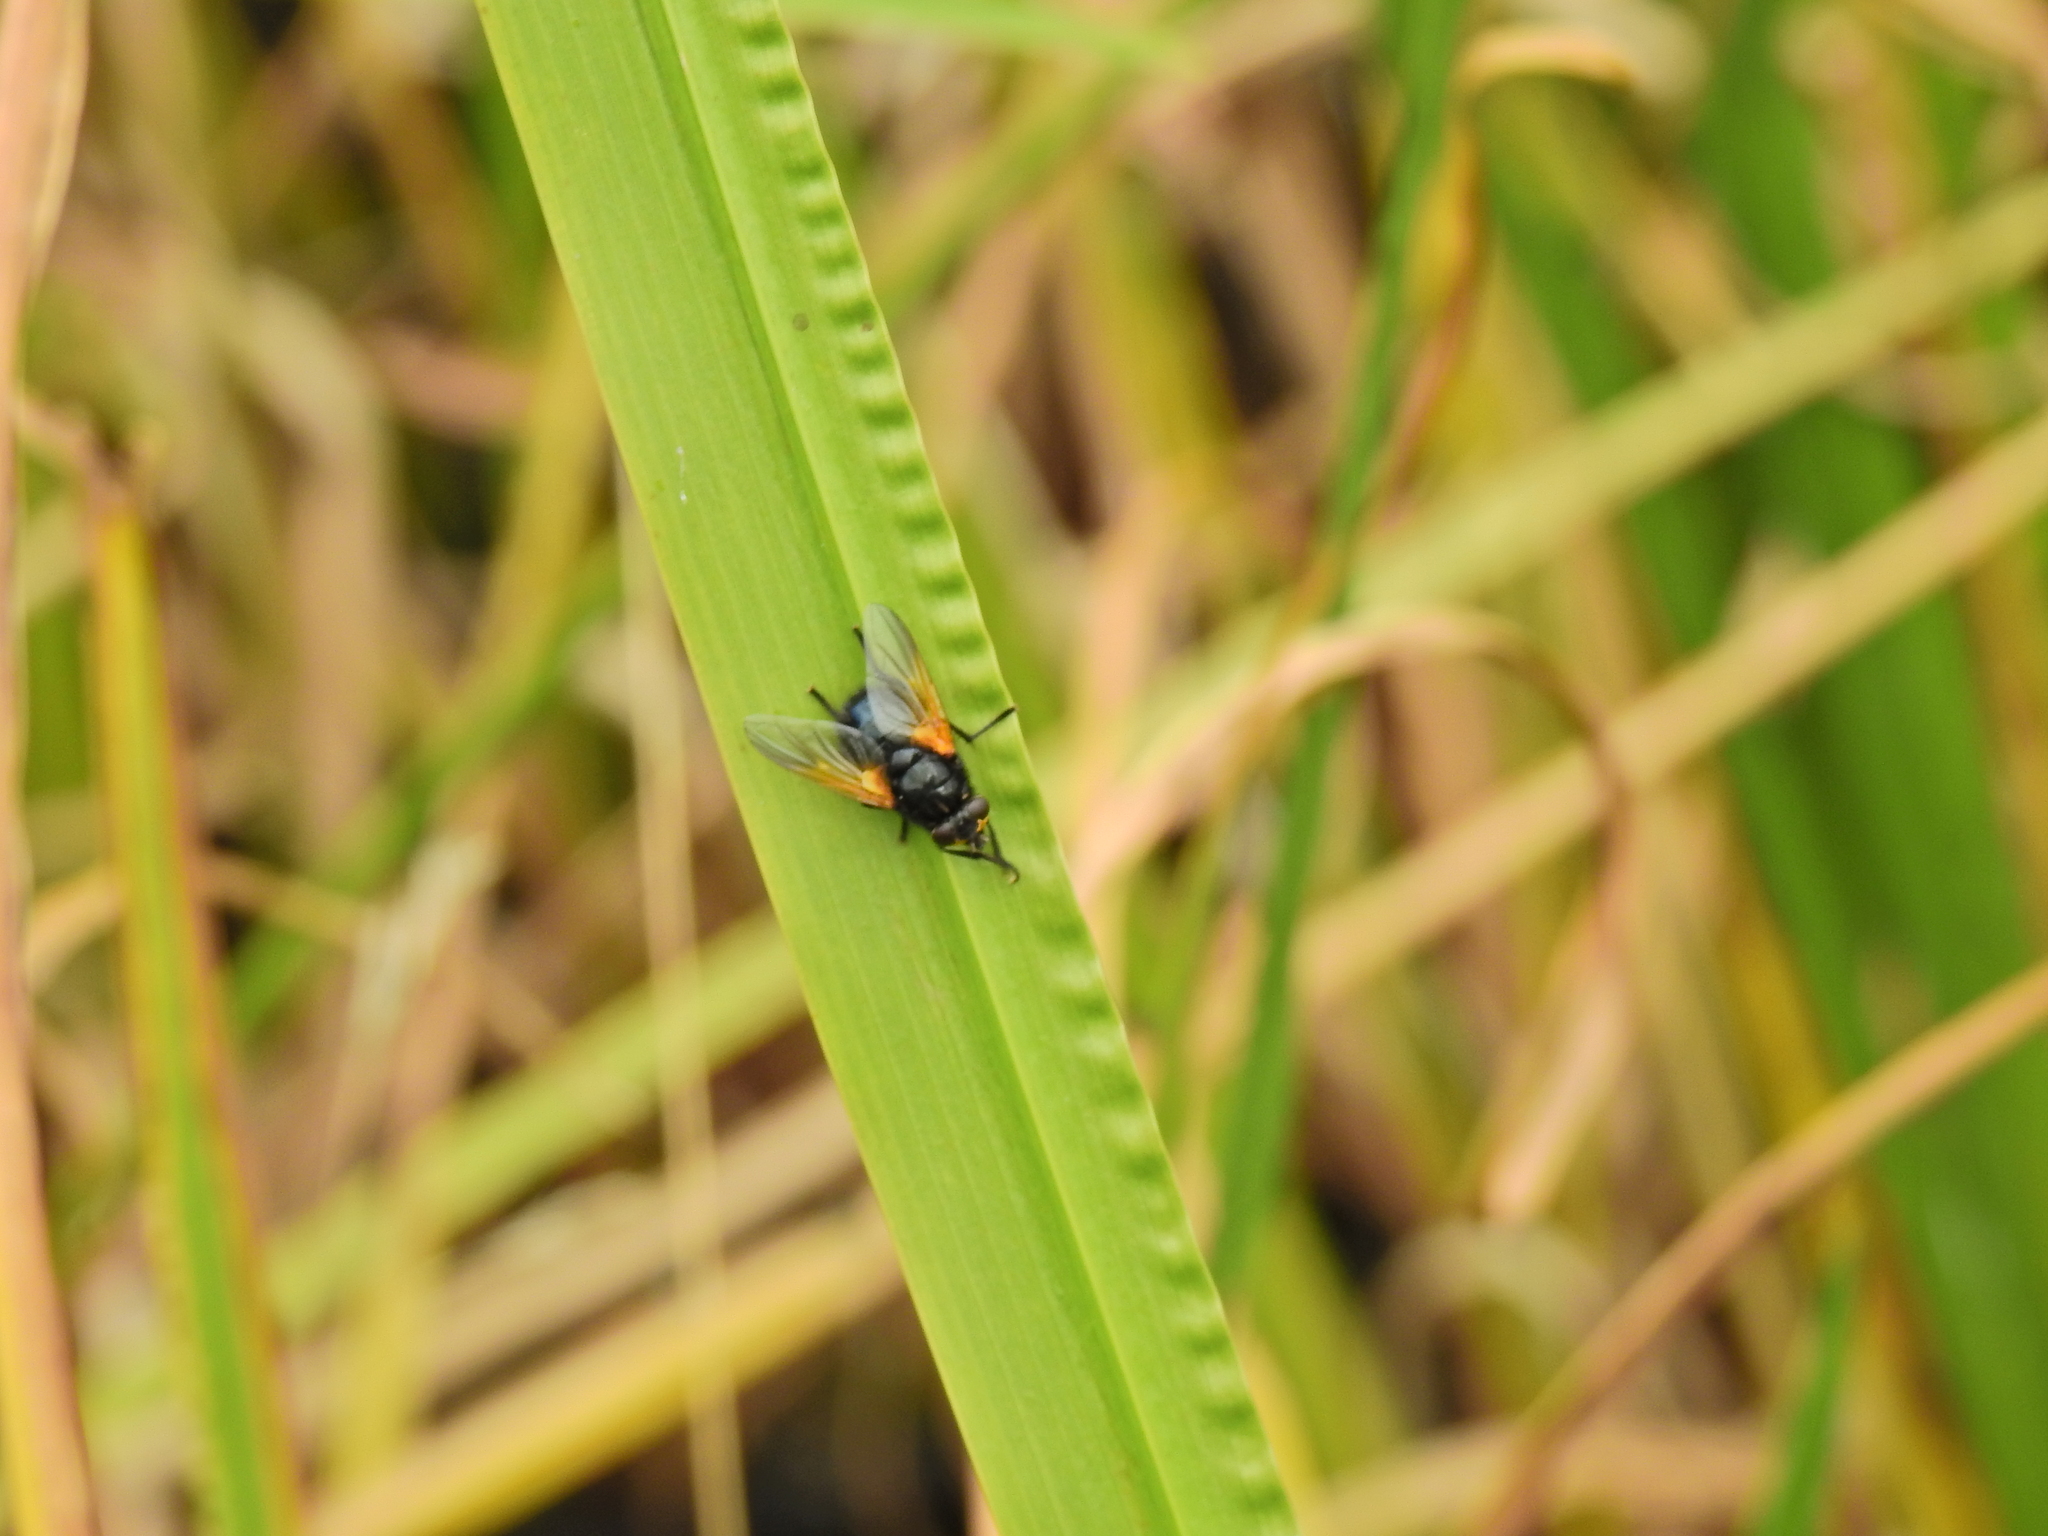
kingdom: Animalia
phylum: Arthropoda
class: Insecta
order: Diptera
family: Muscidae
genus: Mesembrina
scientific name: Mesembrina meridiana
